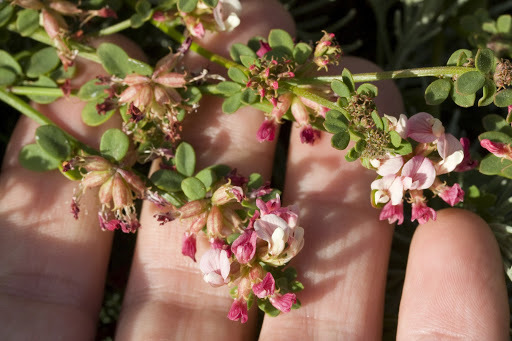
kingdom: Plantae
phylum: Tracheophyta
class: Magnoliopsida
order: Fabales
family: Fabaceae
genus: Acmispon
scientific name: Acmispon cytisoides
